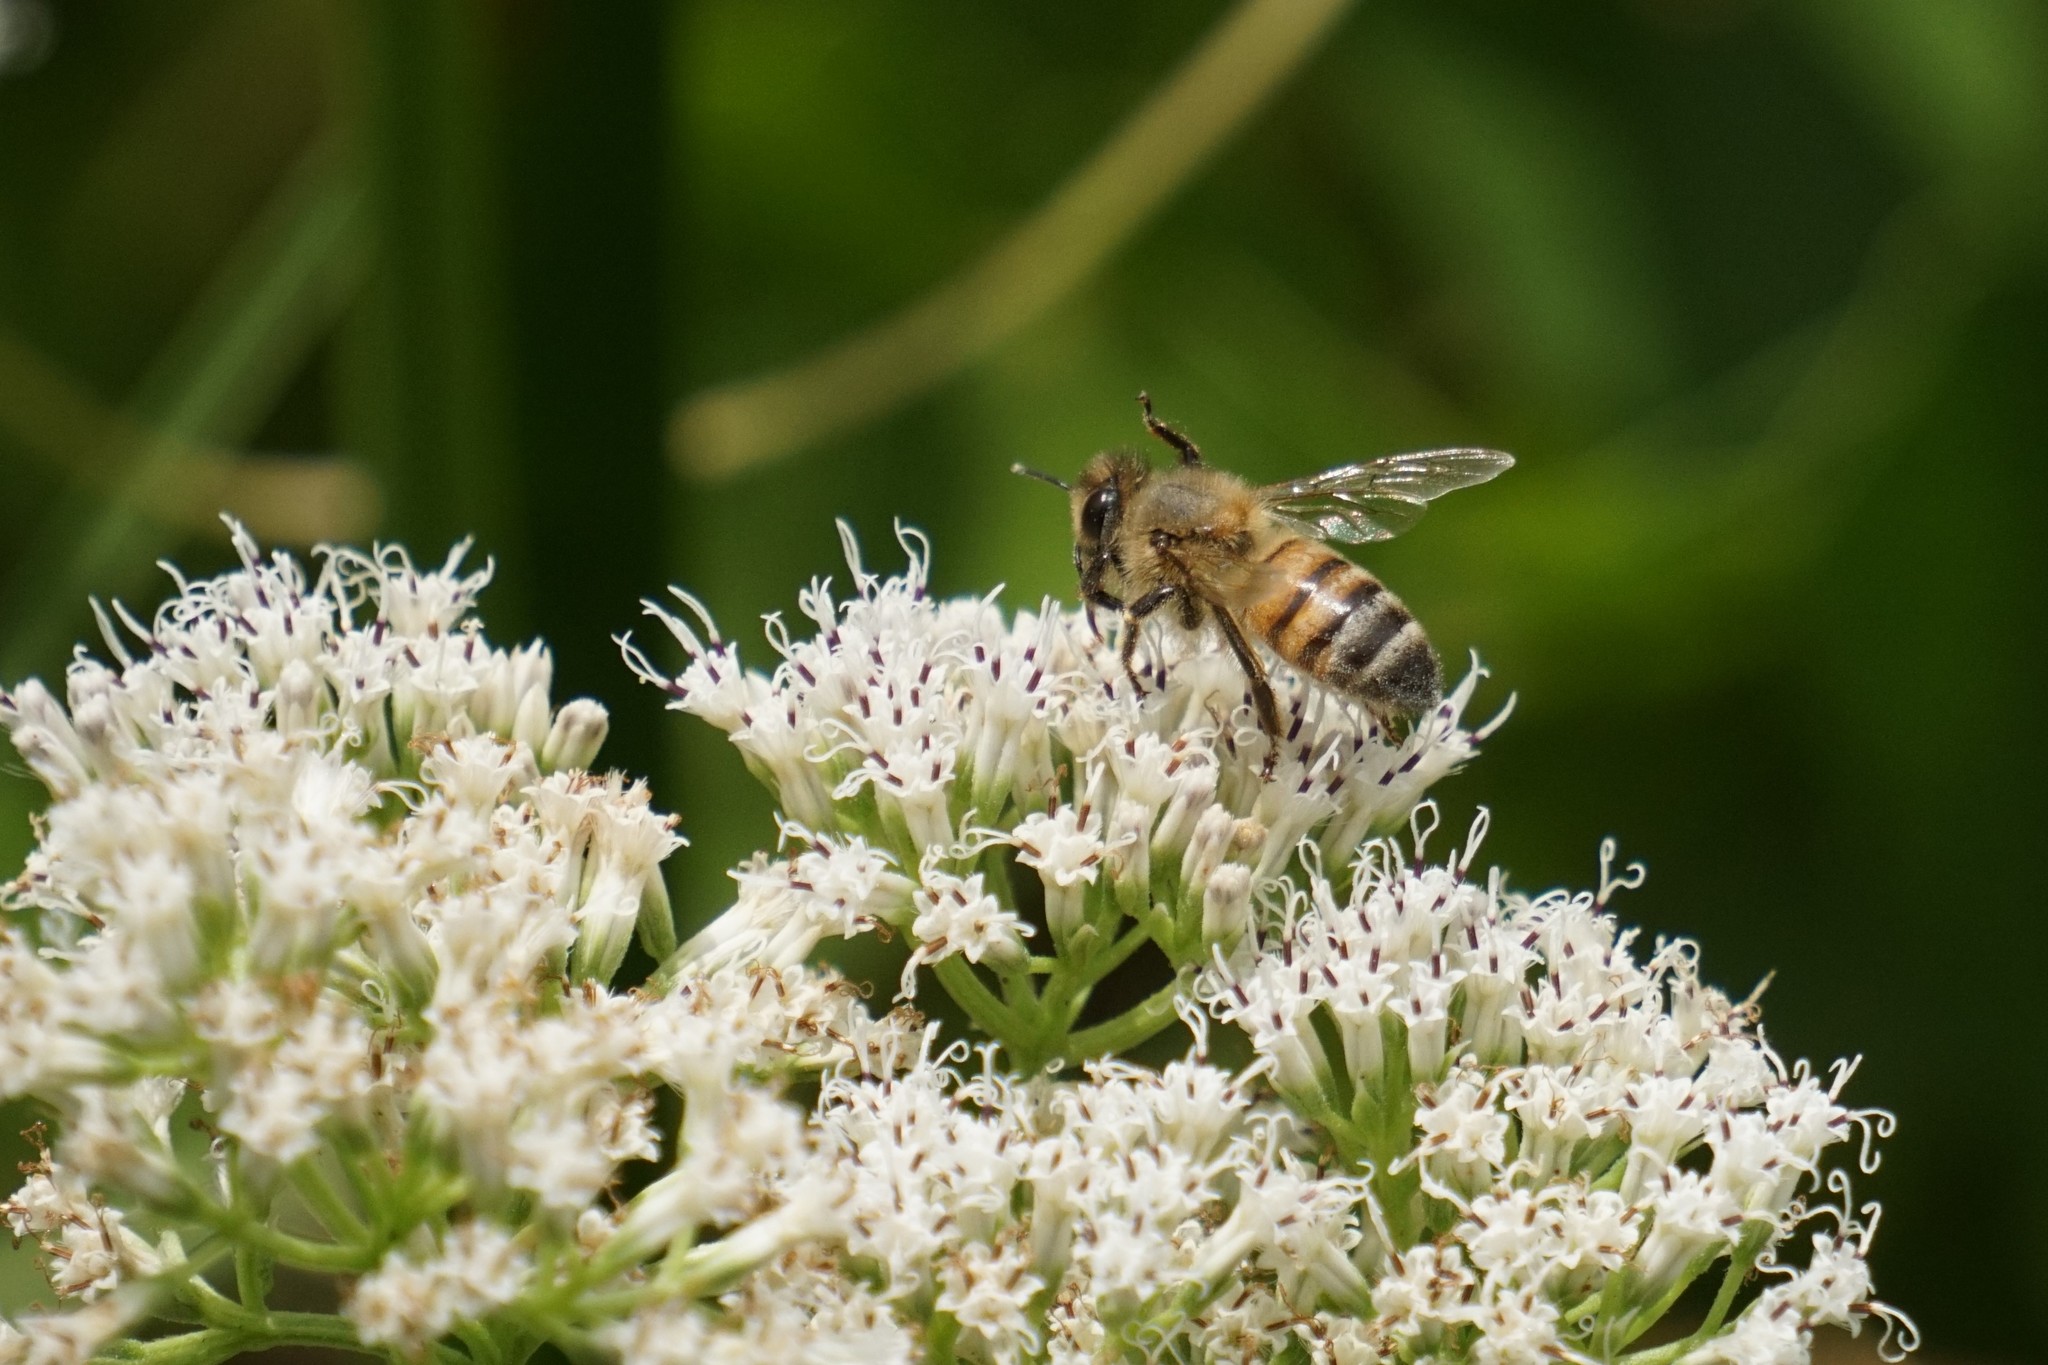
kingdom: Animalia
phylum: Arthropoda
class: Insecta
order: Hymenoptera
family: Apidae
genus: Apis
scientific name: Apis mellifera
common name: Honey bee
